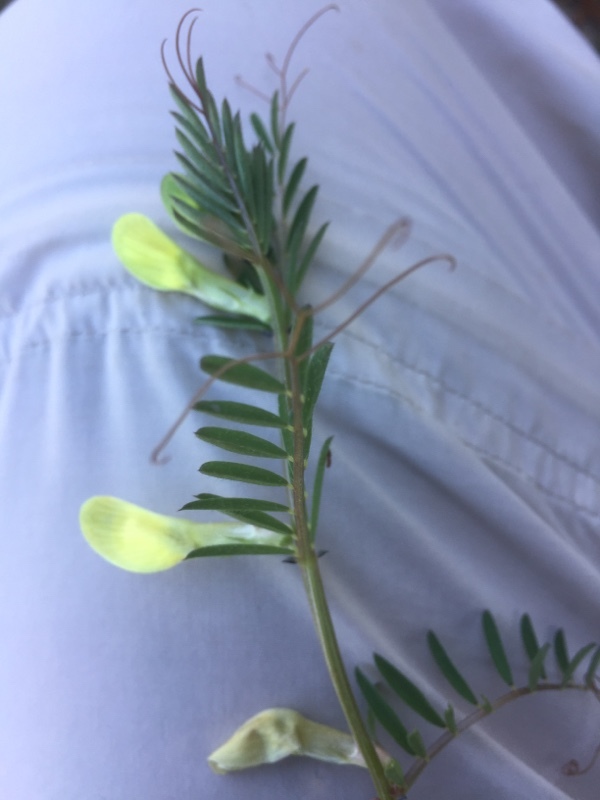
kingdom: Plantae
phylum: Tracheophyta
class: Magnoliopsida
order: Fabales
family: Fabaceae
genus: Vicia
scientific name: Vicia lutea
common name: Smooth yellow vetch
